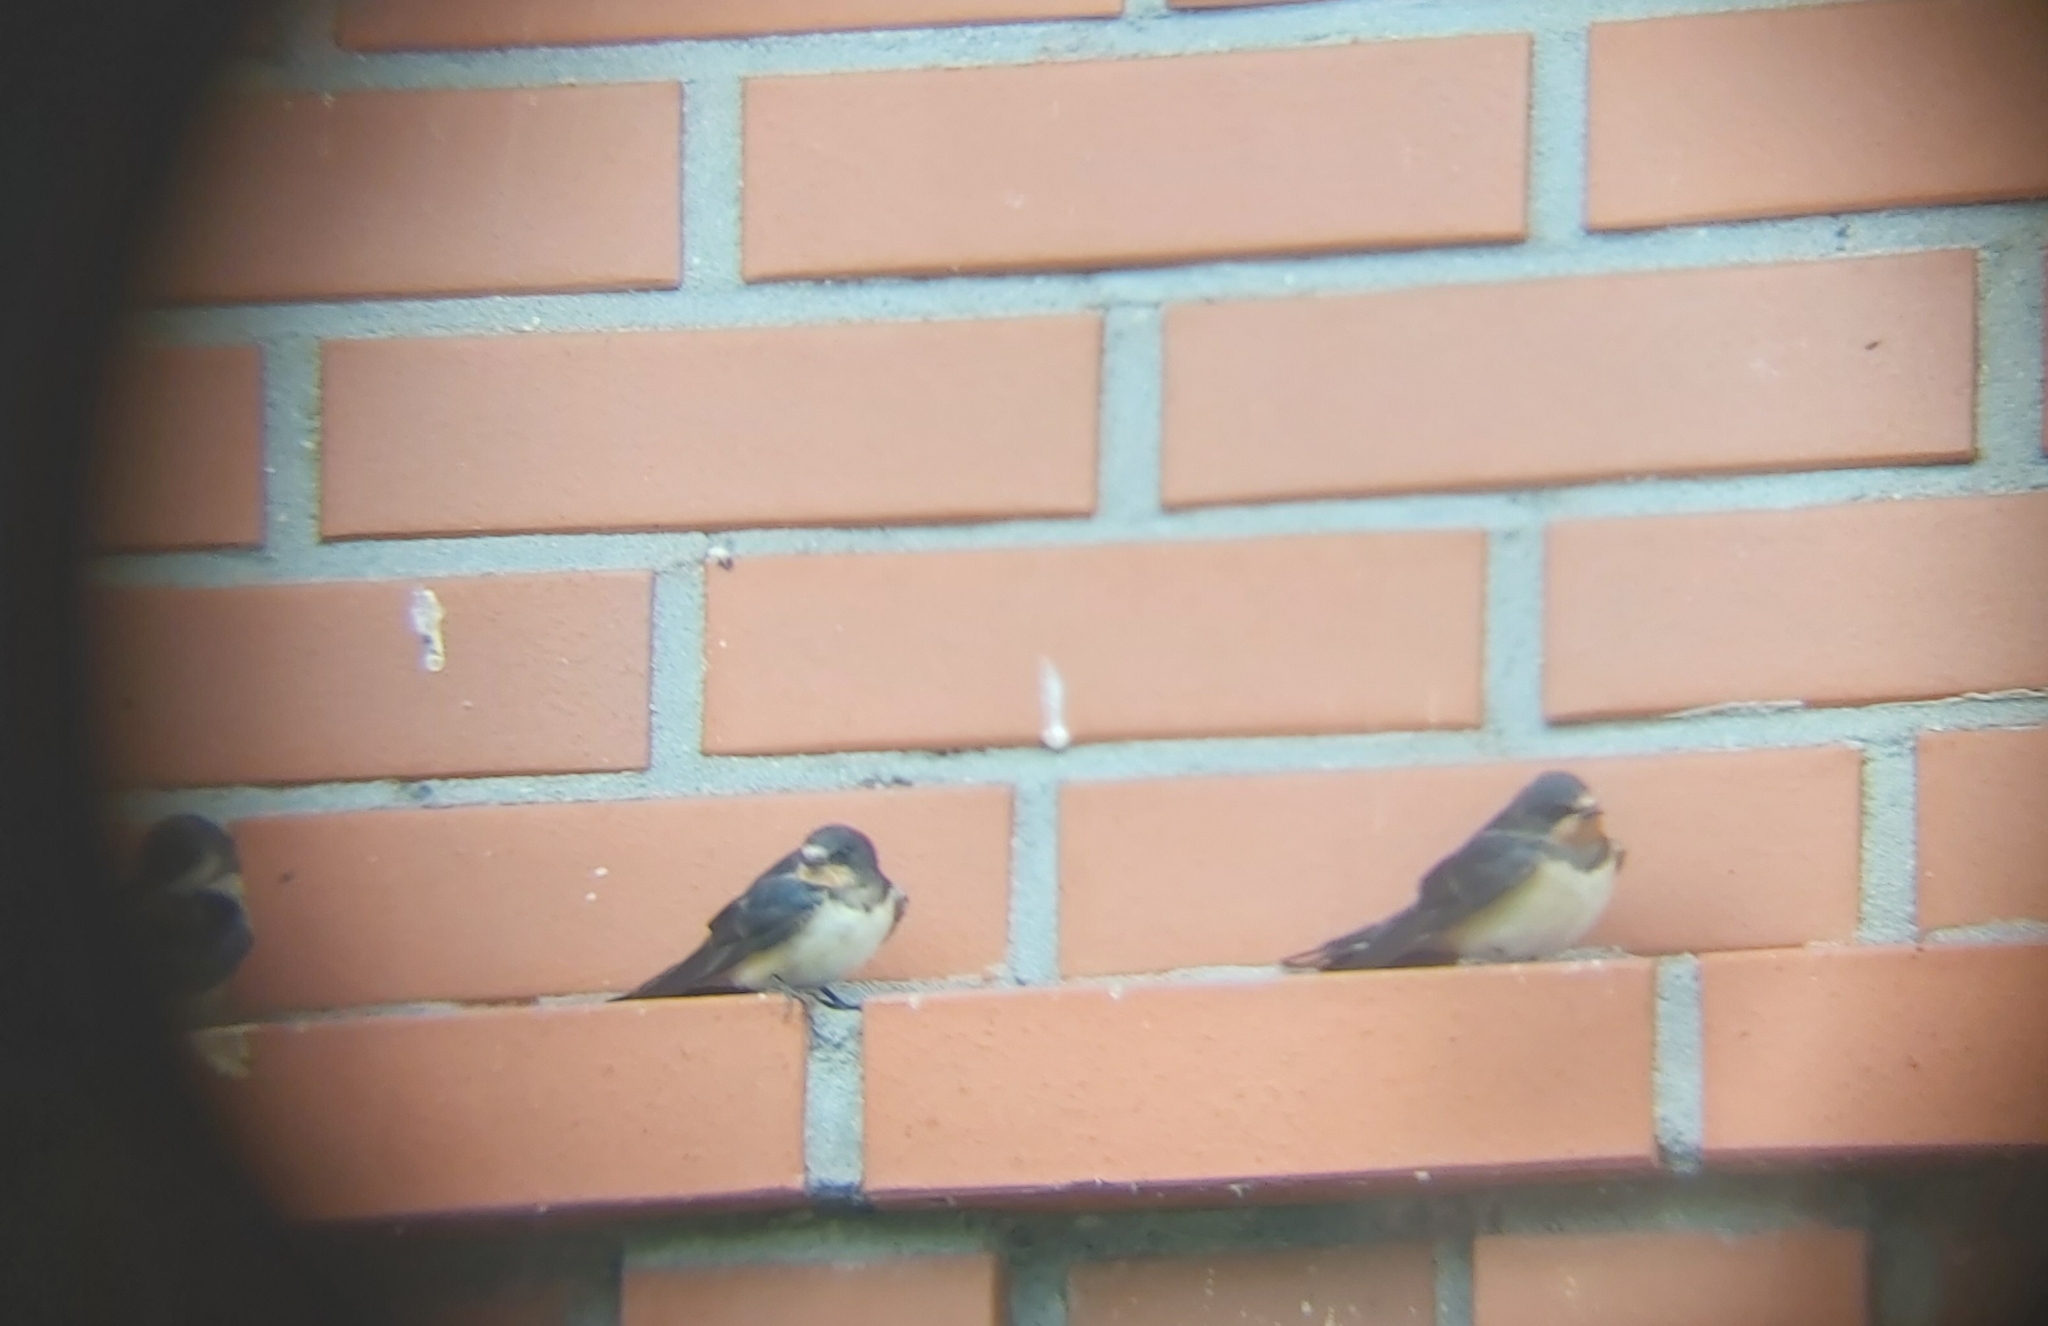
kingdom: Animalia
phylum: Chordata
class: Aves
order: Passeriformes
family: Hirundinidae
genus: Hirundo
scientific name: Hirundo rustica
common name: Barn swallow
